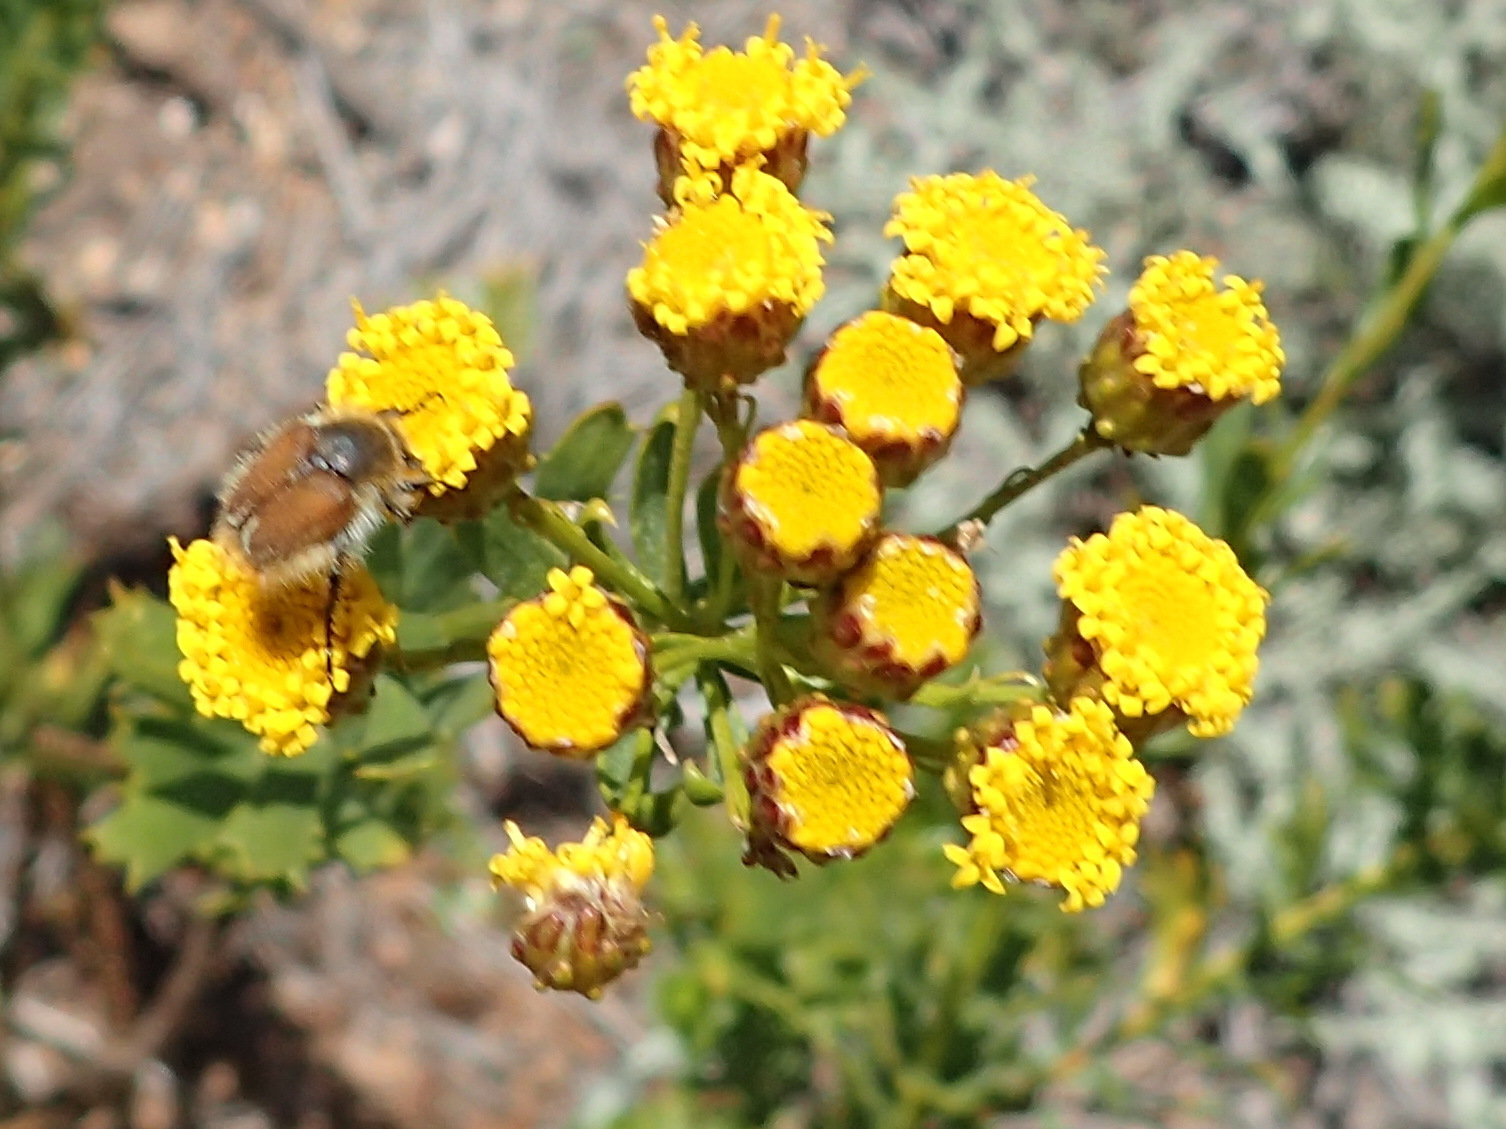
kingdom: Plantae
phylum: Tracheophyta
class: Magnoliopsida
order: Asterales
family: Asteraceae
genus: Athanasia
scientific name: Athanasia trifurcata
